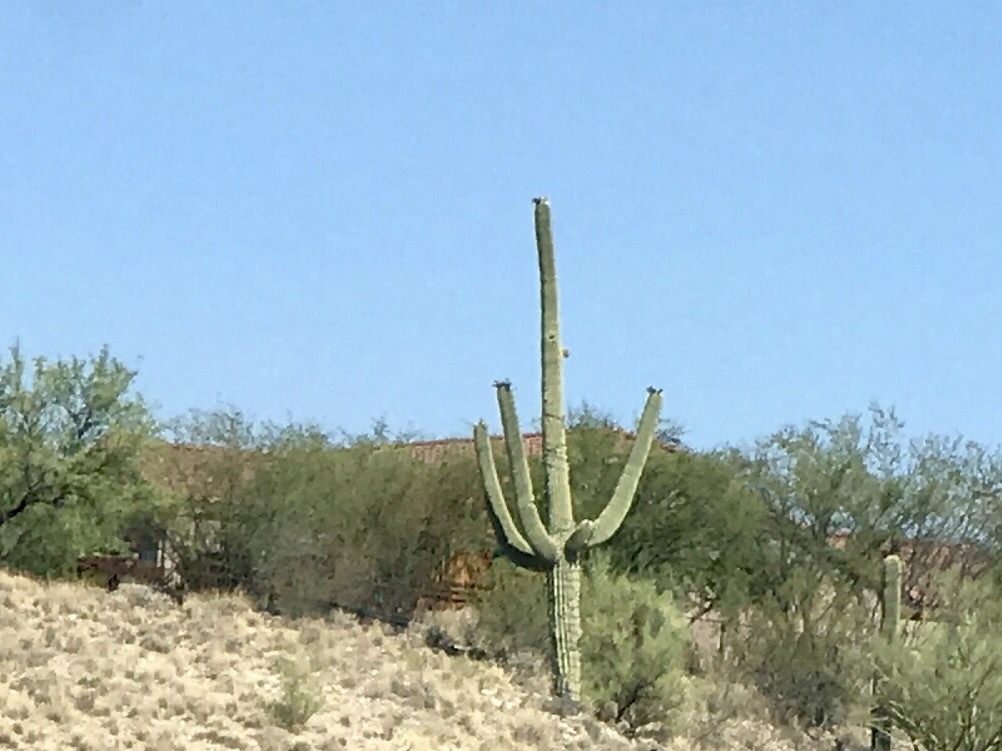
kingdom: Plantae
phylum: Tracheophyta
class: Magnoliopsida
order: Caryophyllales
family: Cactaceae
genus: Carnegiea
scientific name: Carnegiea gigantea
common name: Saguaro
